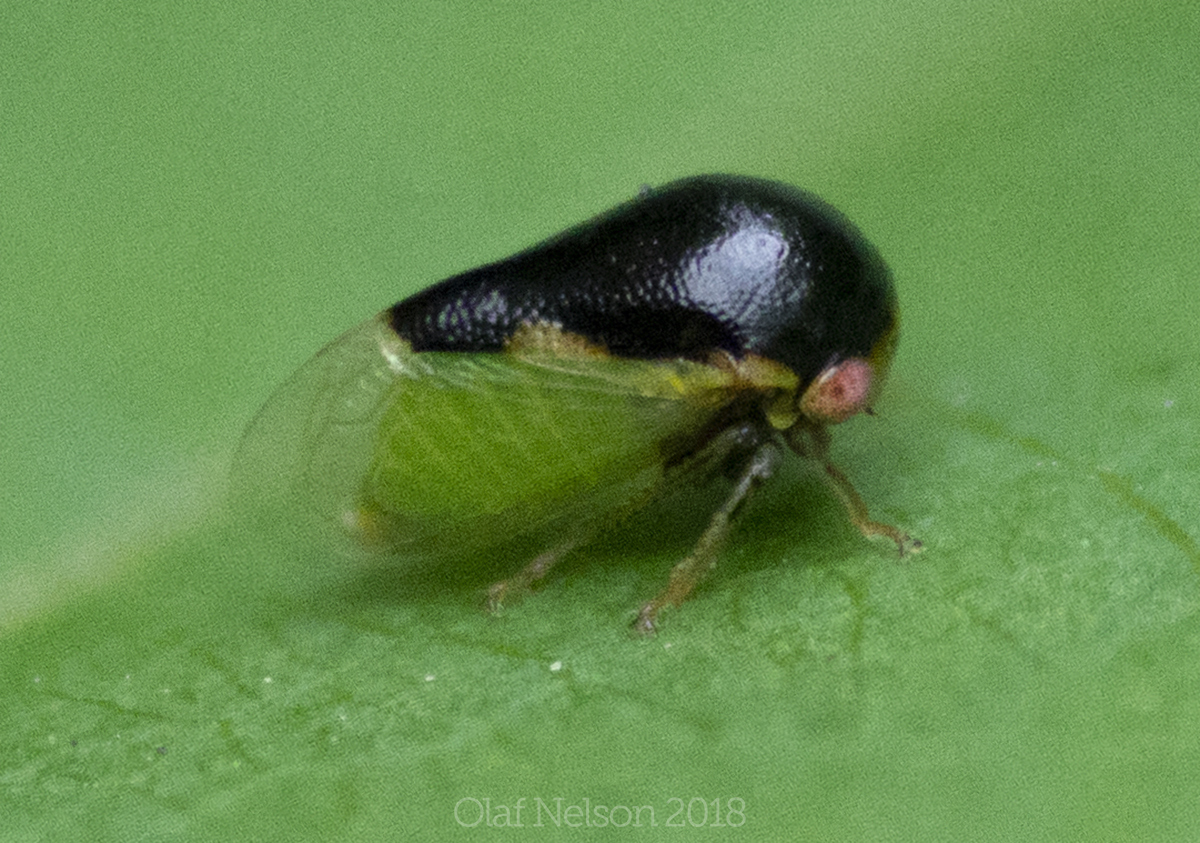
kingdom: Animalia
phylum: Arthropoda
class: Insecta
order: Hemiptera
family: Membracidae
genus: Micrutalis
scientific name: Micrutalis calva
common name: Honeylocust treehopper
